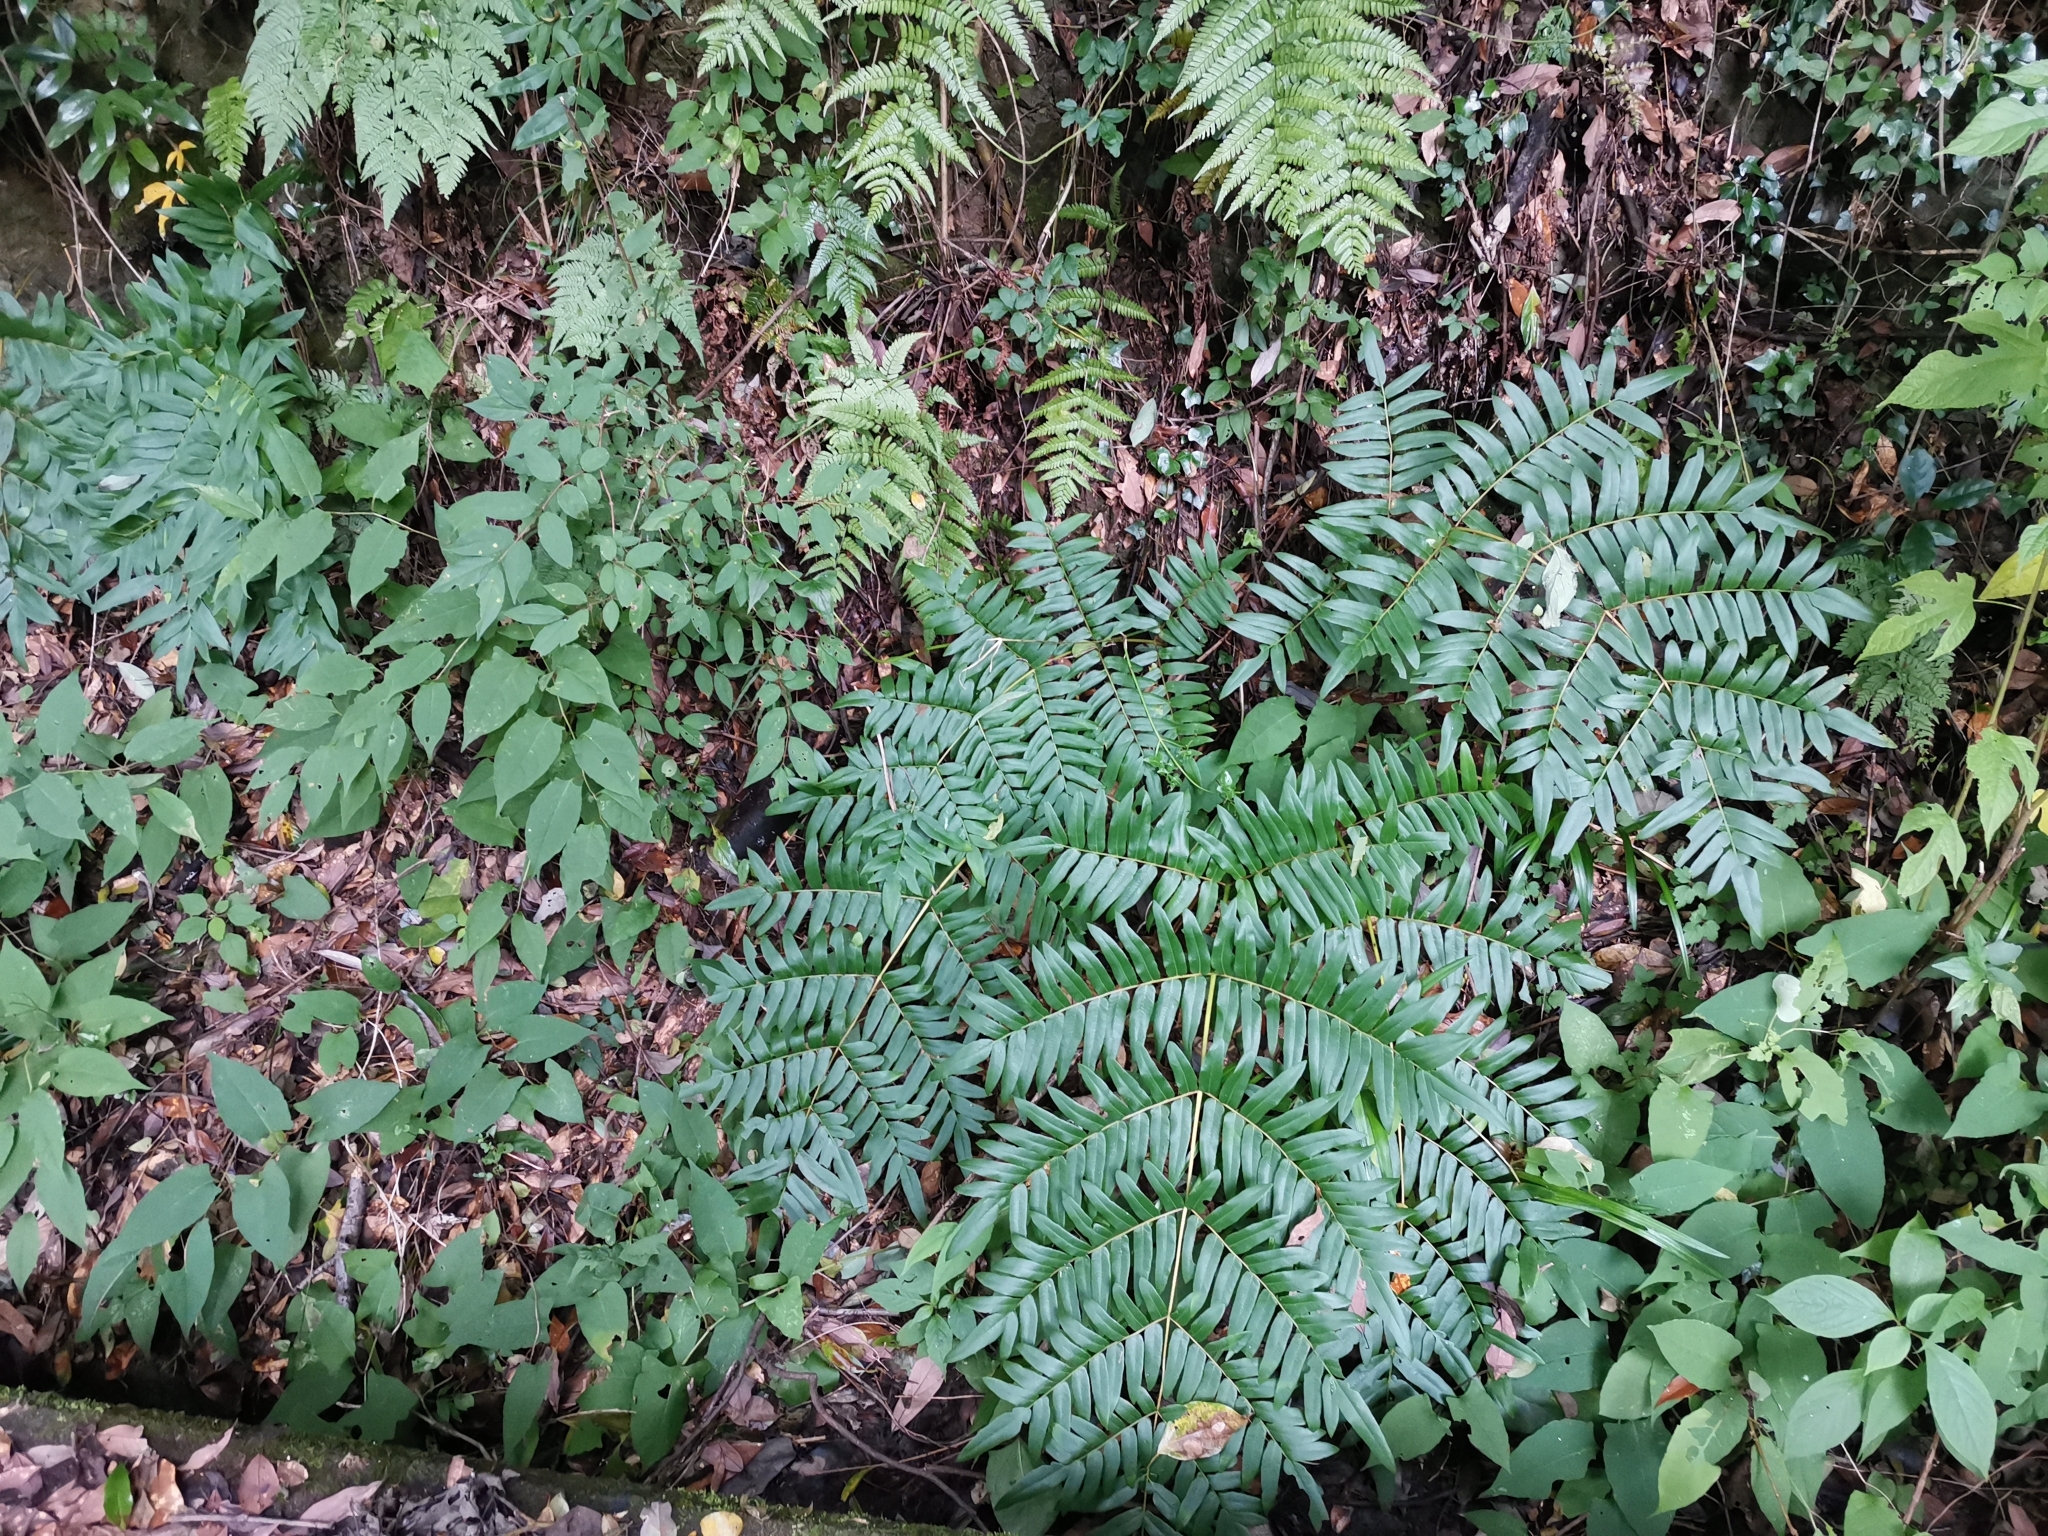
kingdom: Plantae
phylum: Tracheophyta
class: Polypodiopsida
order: Osmundales
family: Osmundaceae
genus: Osmunda
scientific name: Osmunda japonica
